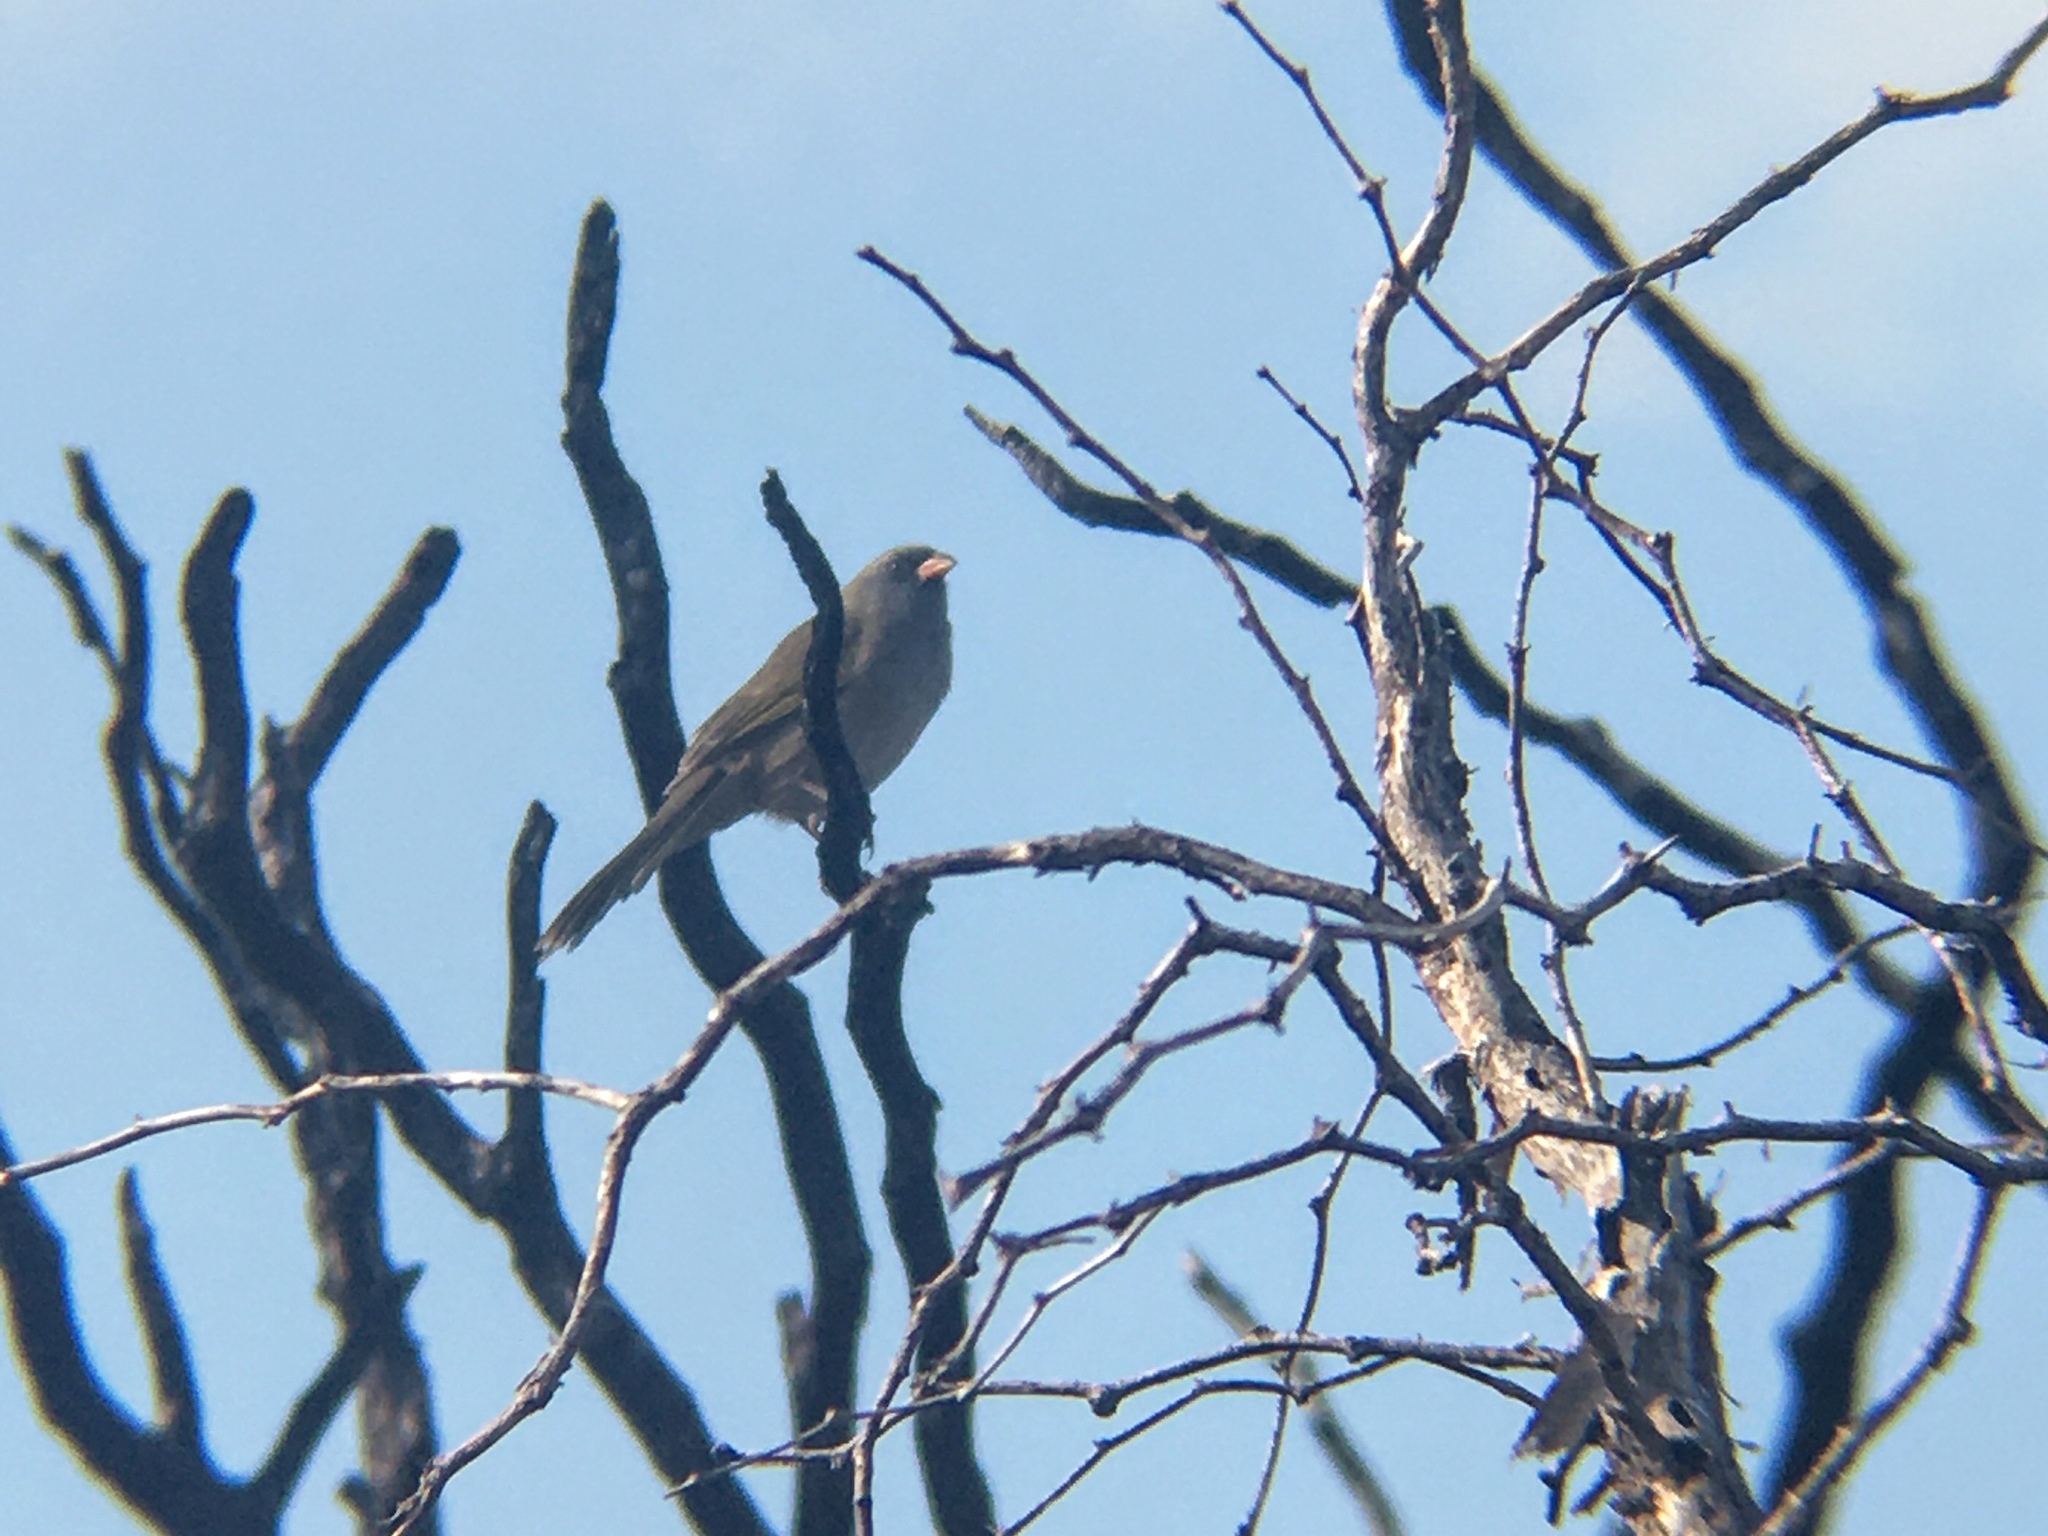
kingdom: Animalia
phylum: Chordata
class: Aves
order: Passeriformes
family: Thraupidae
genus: Embernagra
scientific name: Embernagra platensis
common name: Pampa finch
